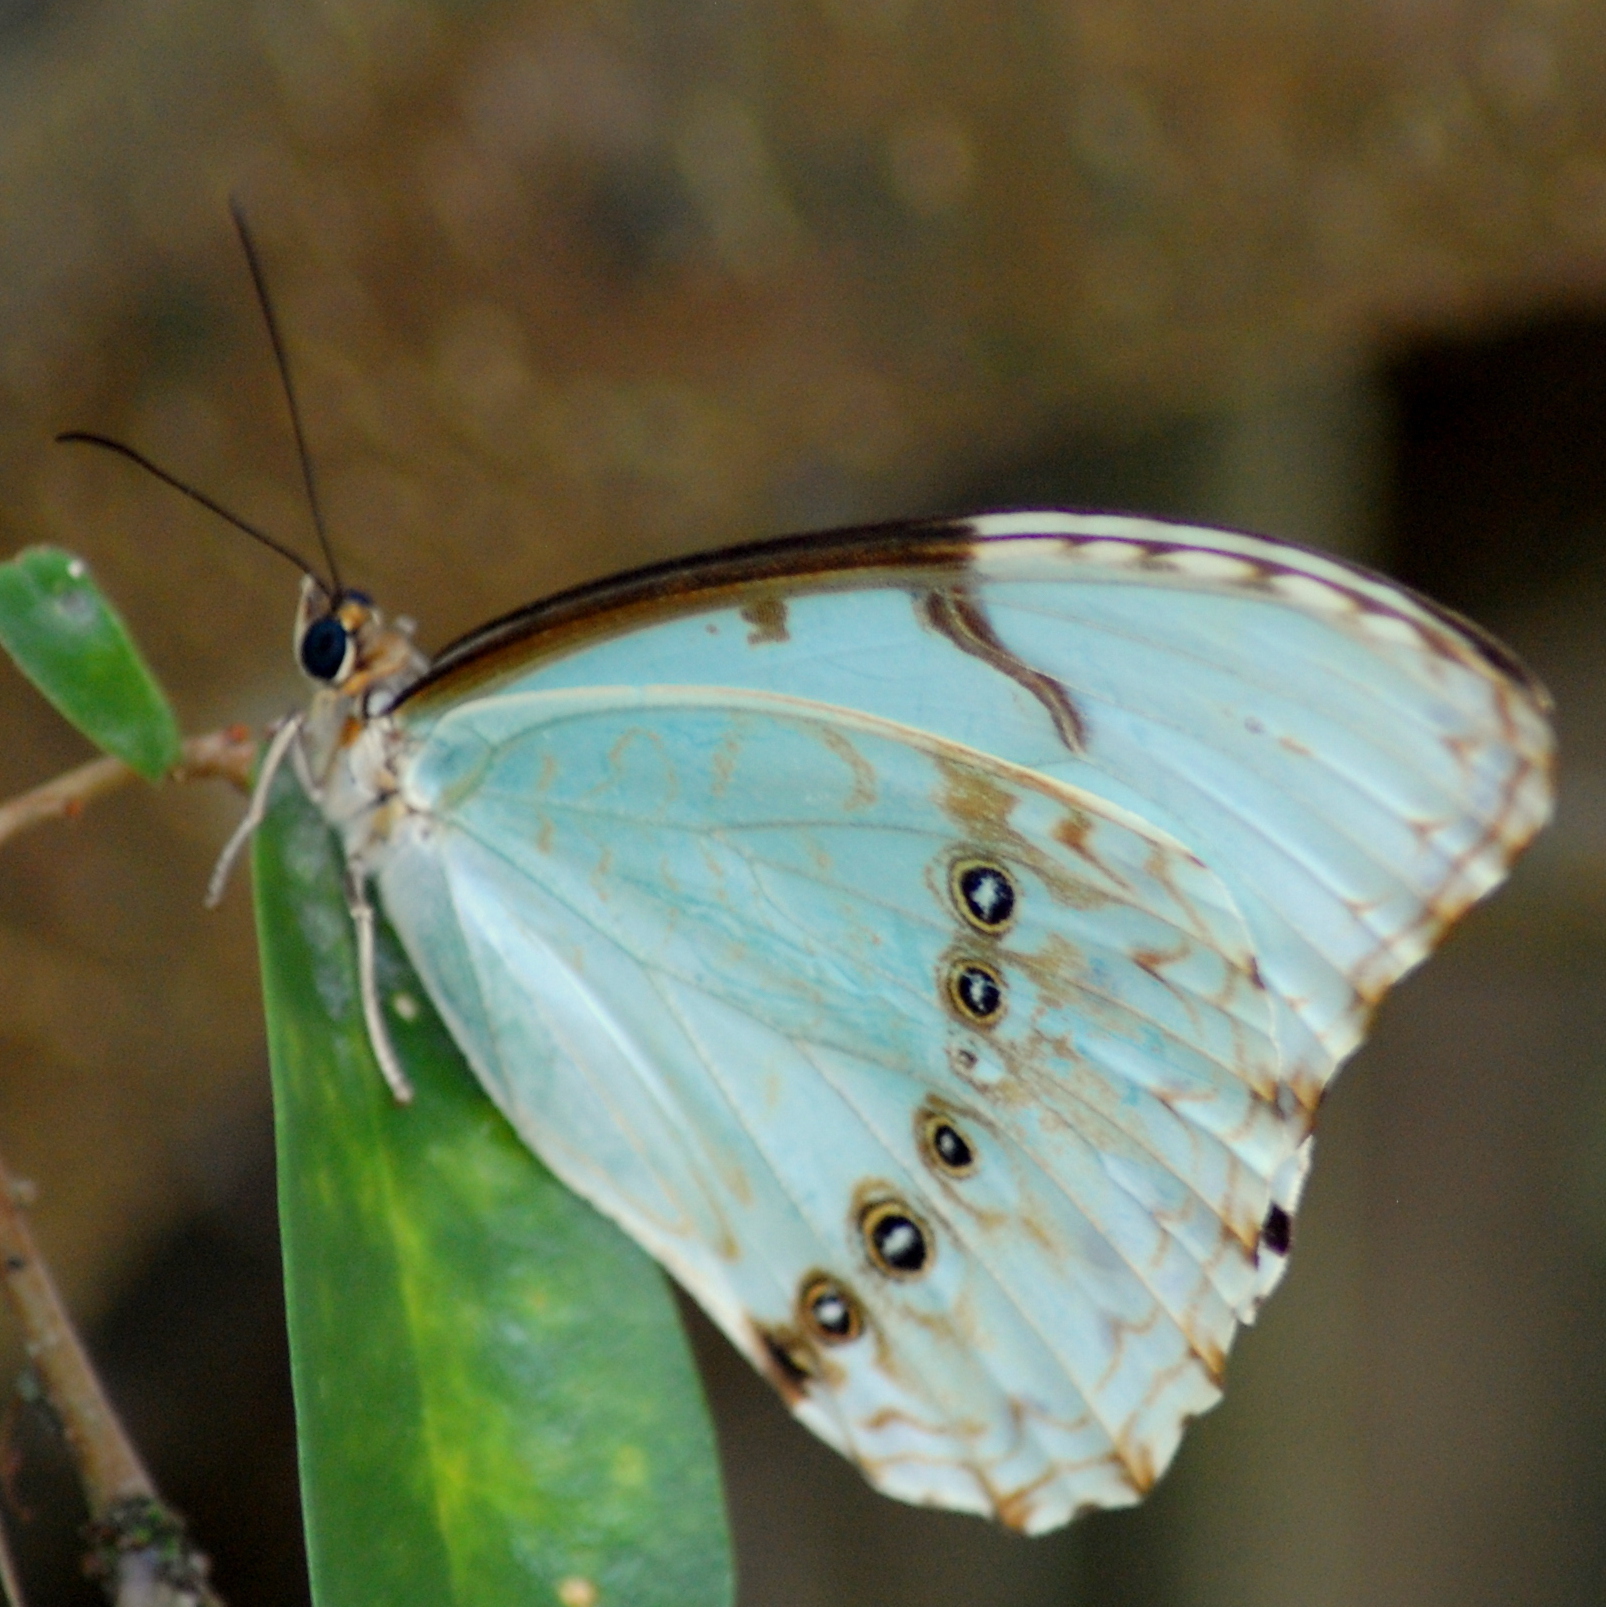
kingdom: Animalia
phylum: Arthropoda
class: Insecta
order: Lepidoptera
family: Nymphalidae
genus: Morpho
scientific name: Morpho epistrophus
